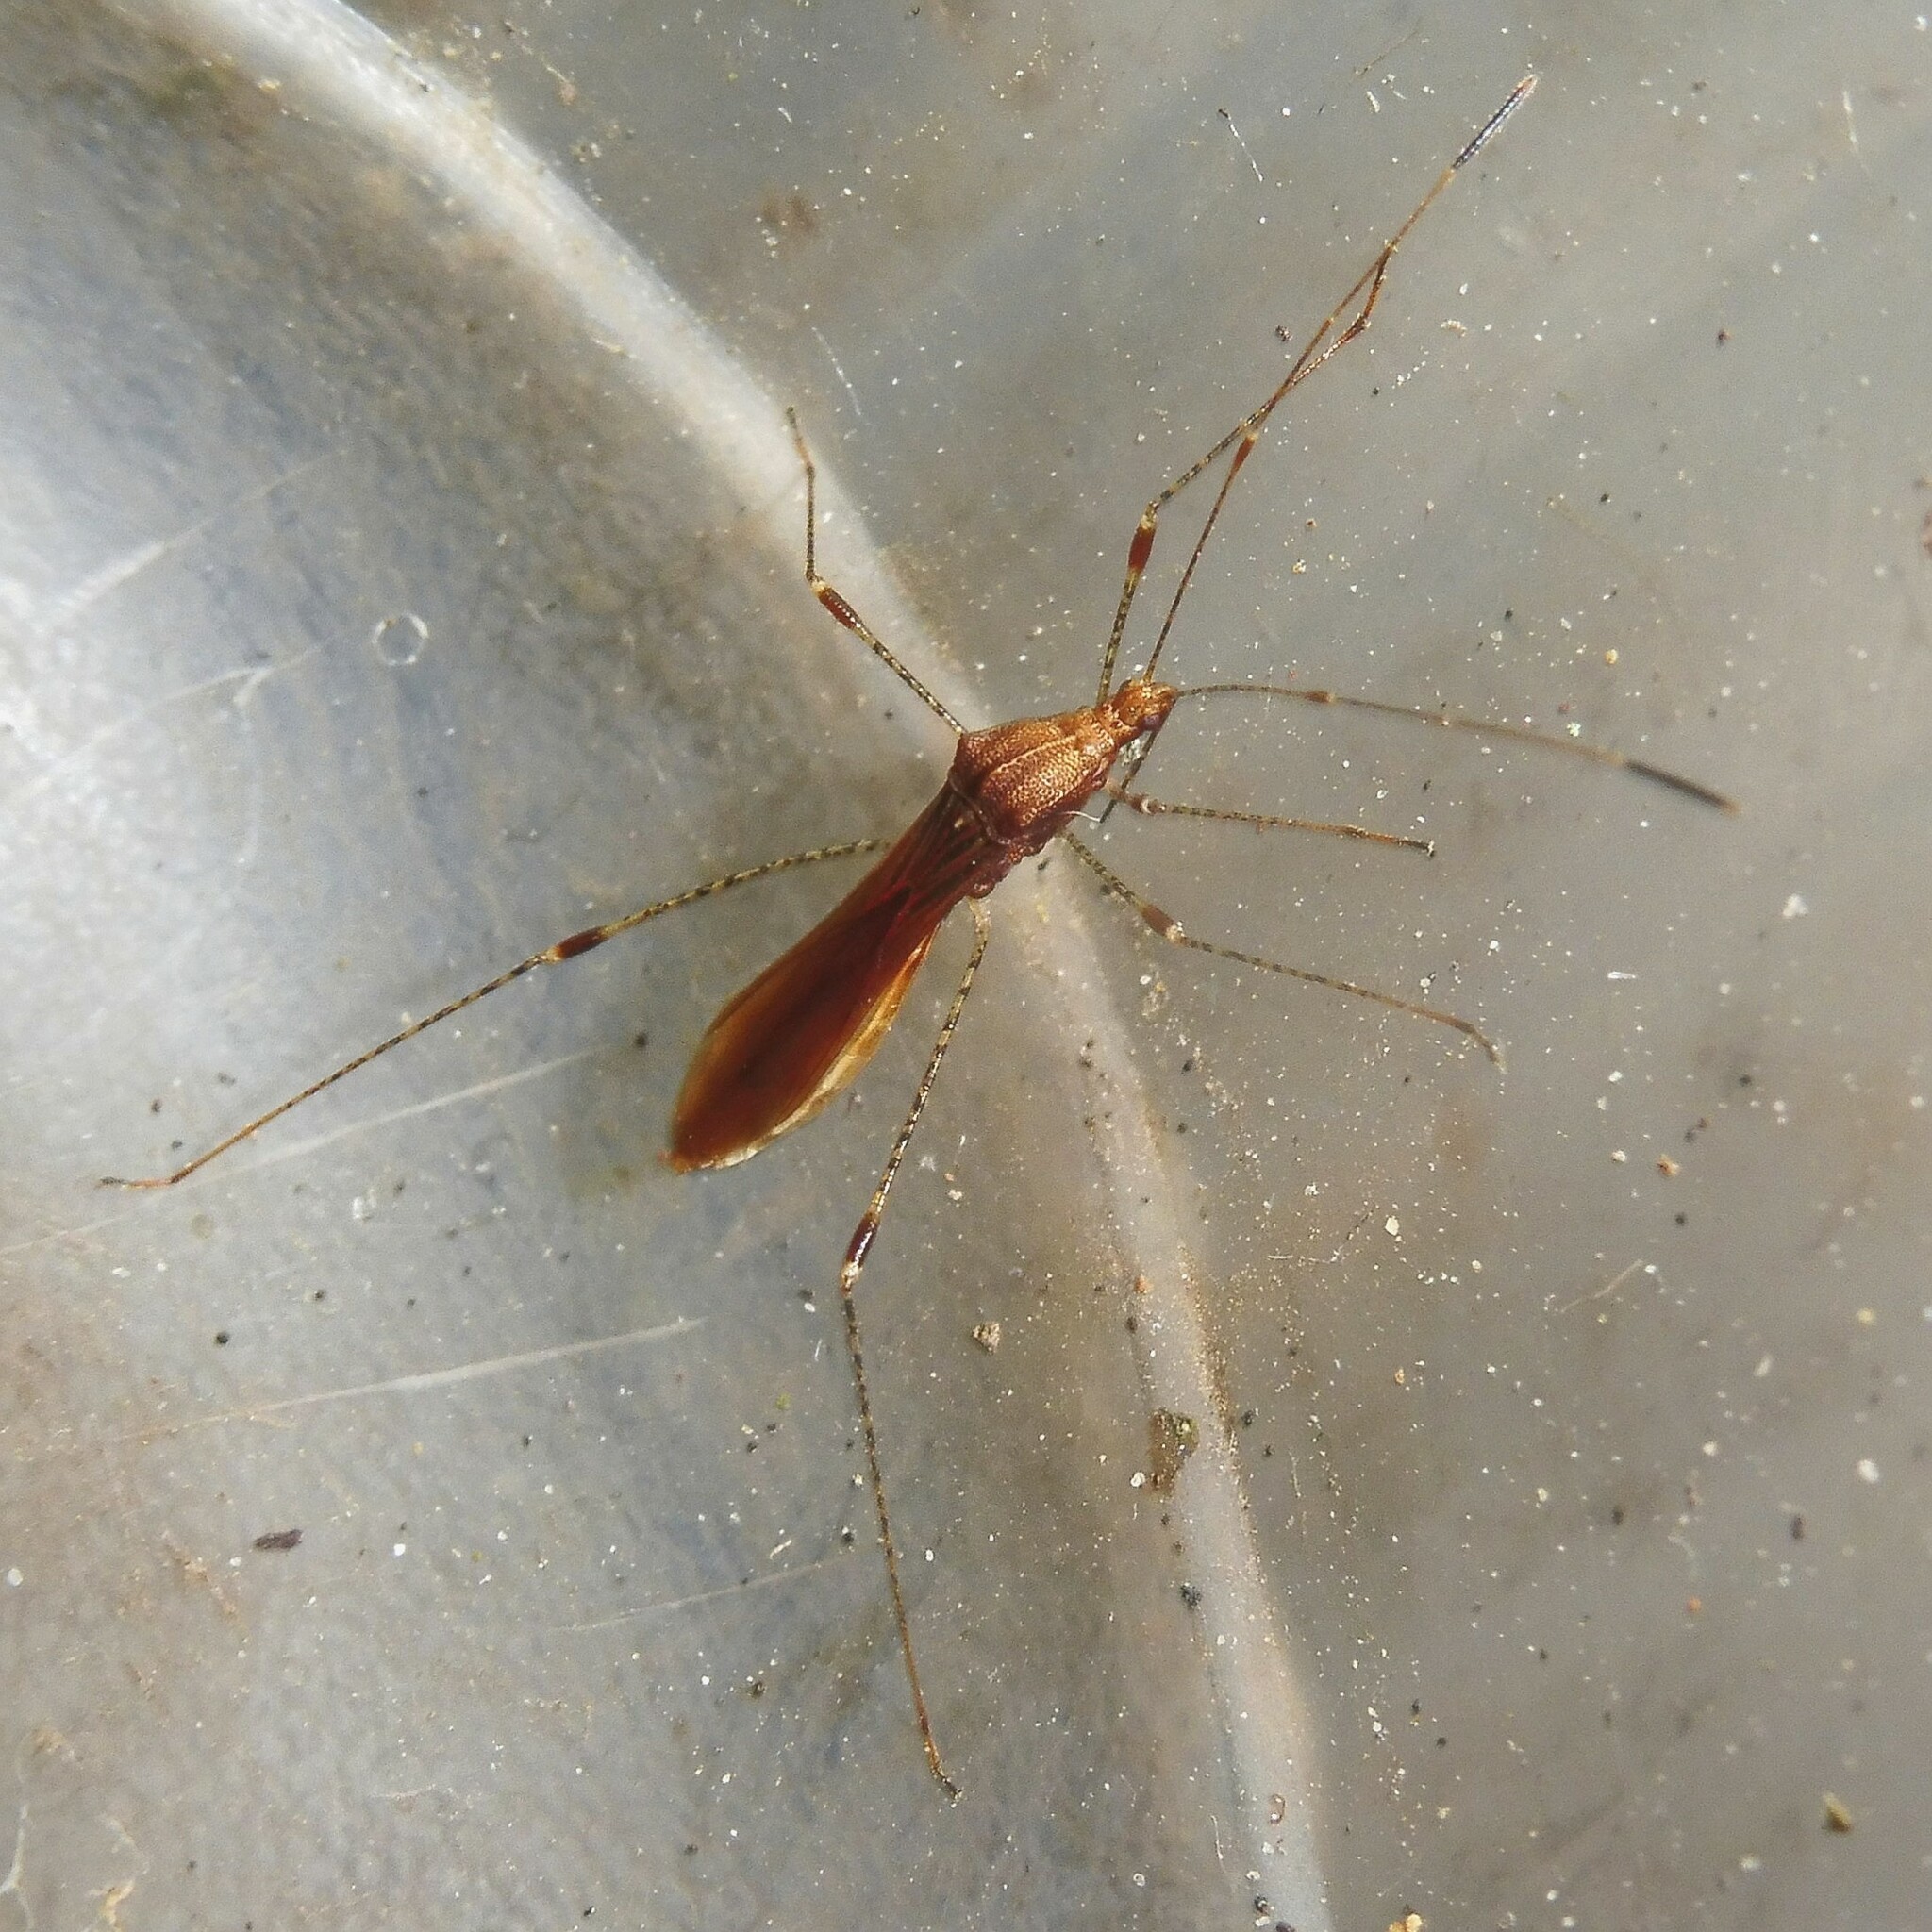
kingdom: Animalia
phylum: Arthropoda
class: Insecta
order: Hemiptera
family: Berytidae
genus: Metatropis
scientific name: Metatropis rufescens
